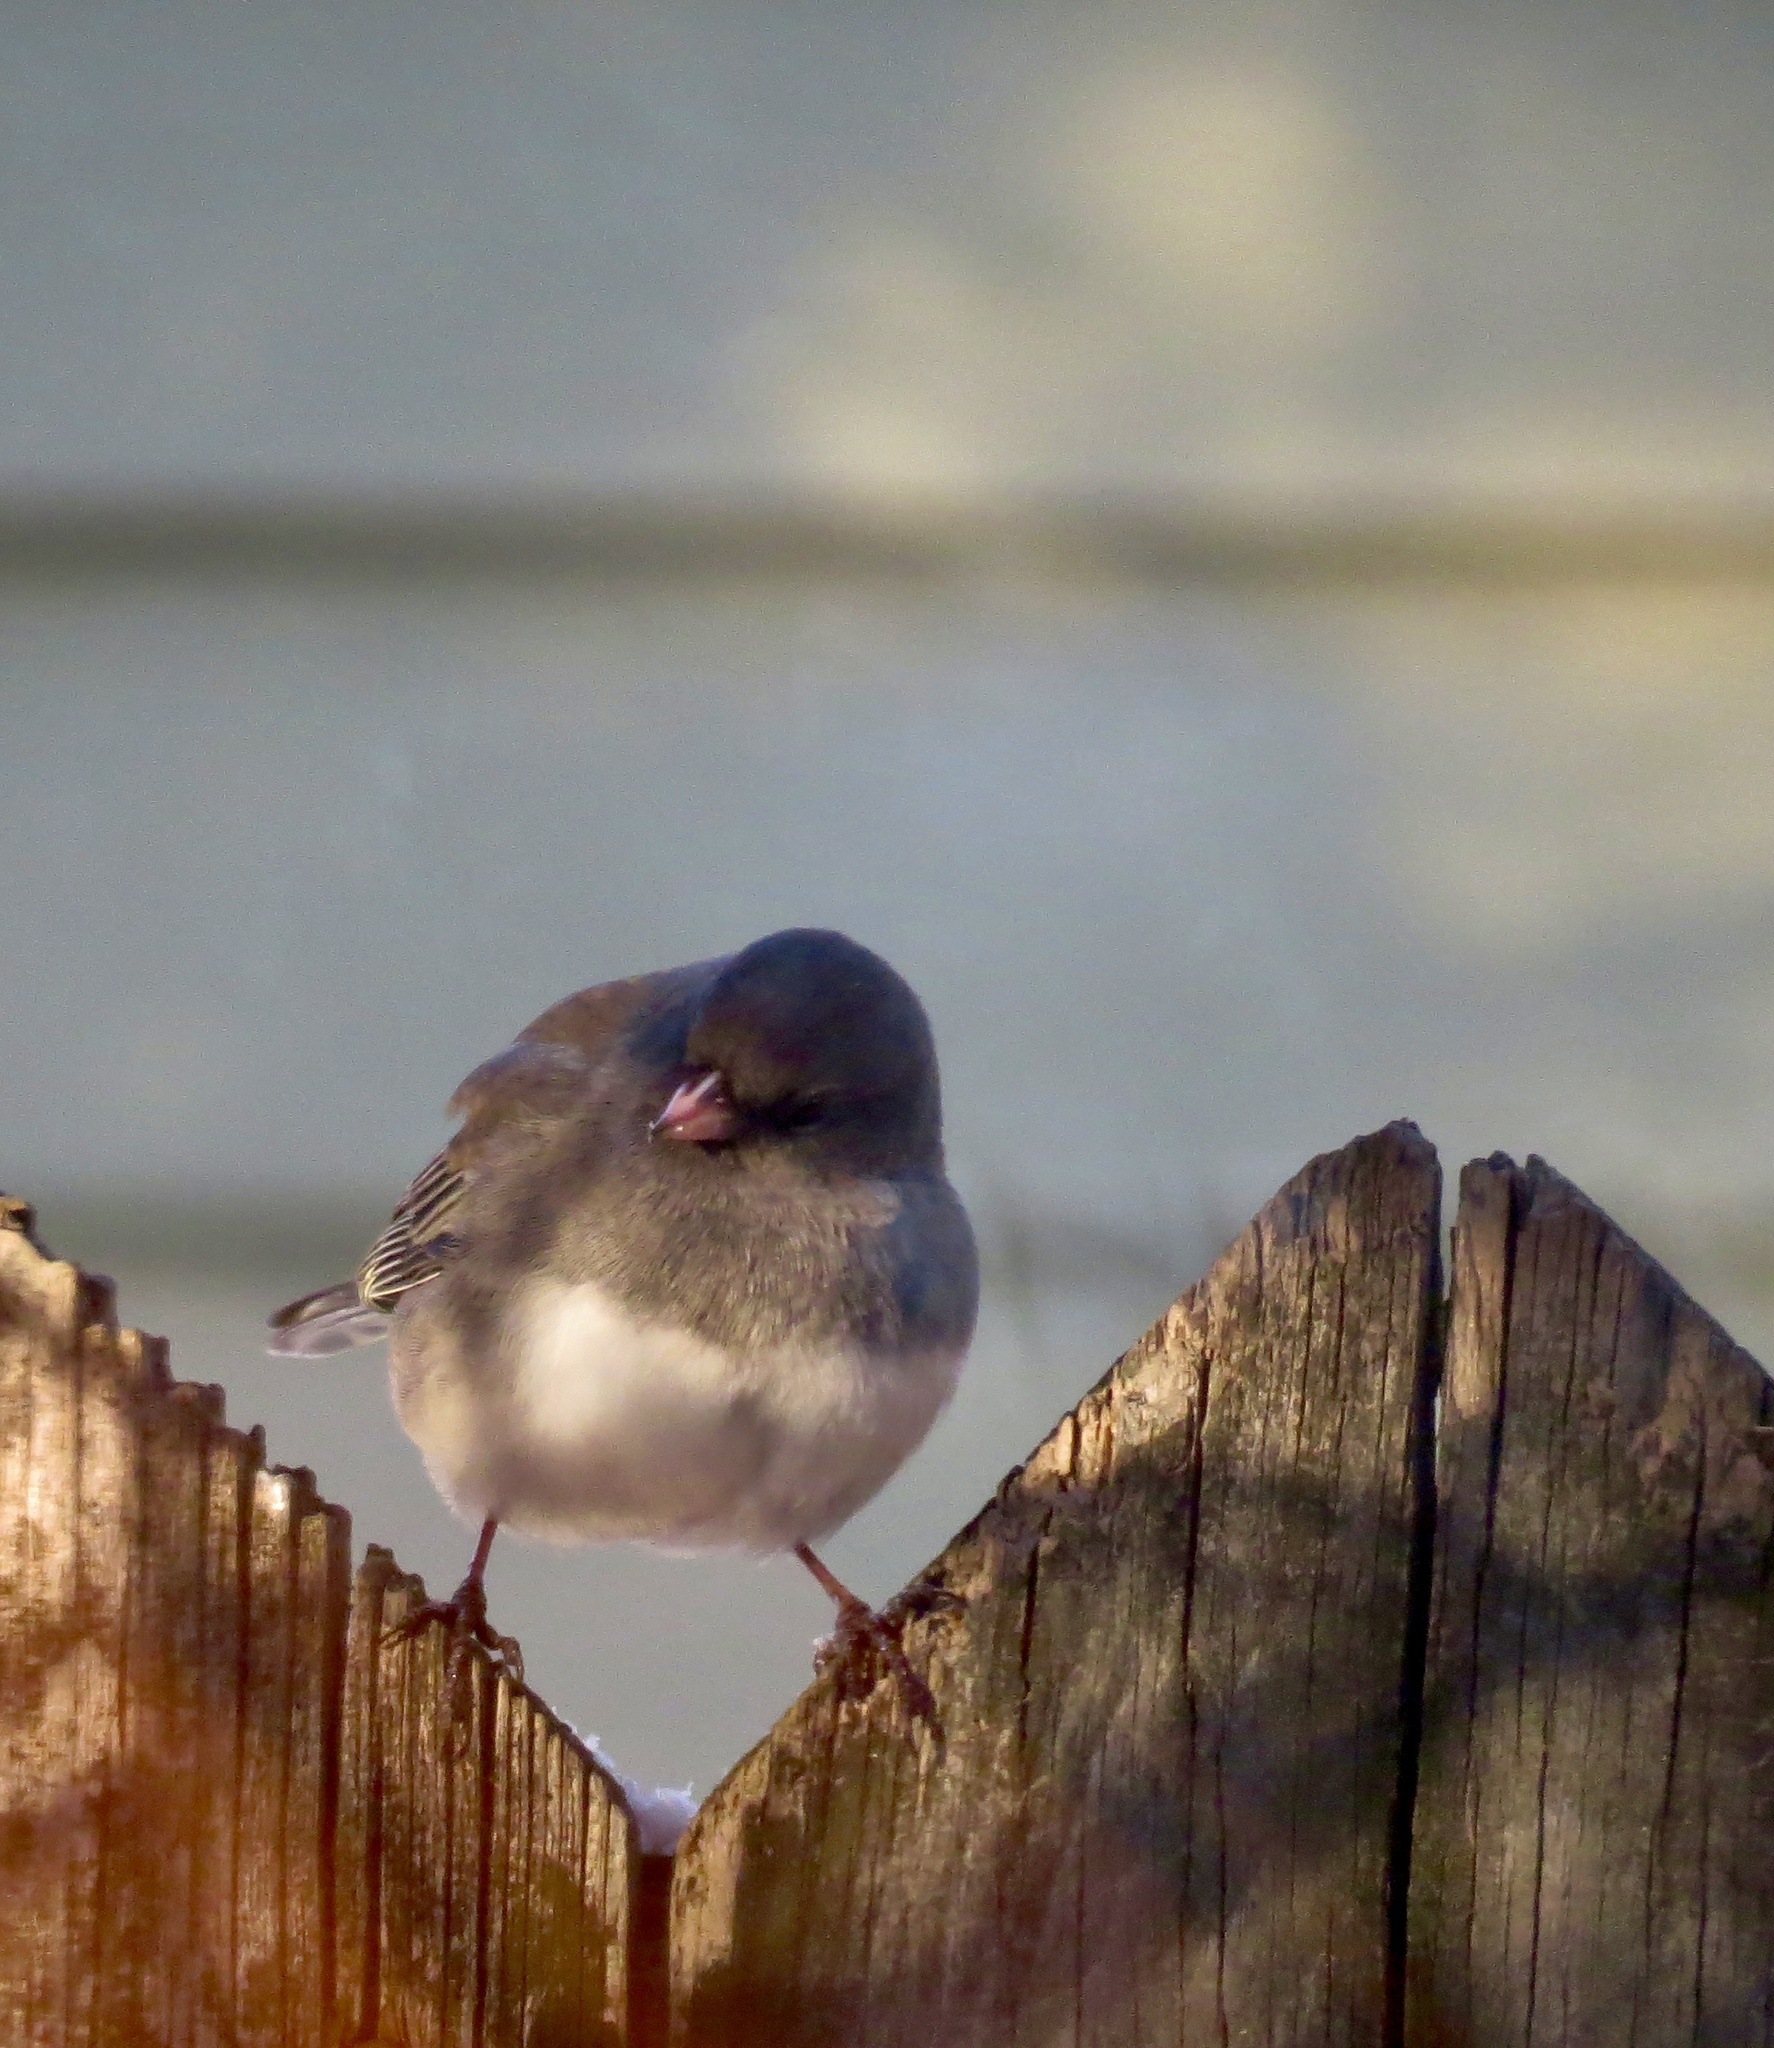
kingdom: Animalia
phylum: Chordata
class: Aves
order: Passeriformes
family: Passerellidae
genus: Junco
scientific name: Junco hyemalis
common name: Dark-eyed junco
